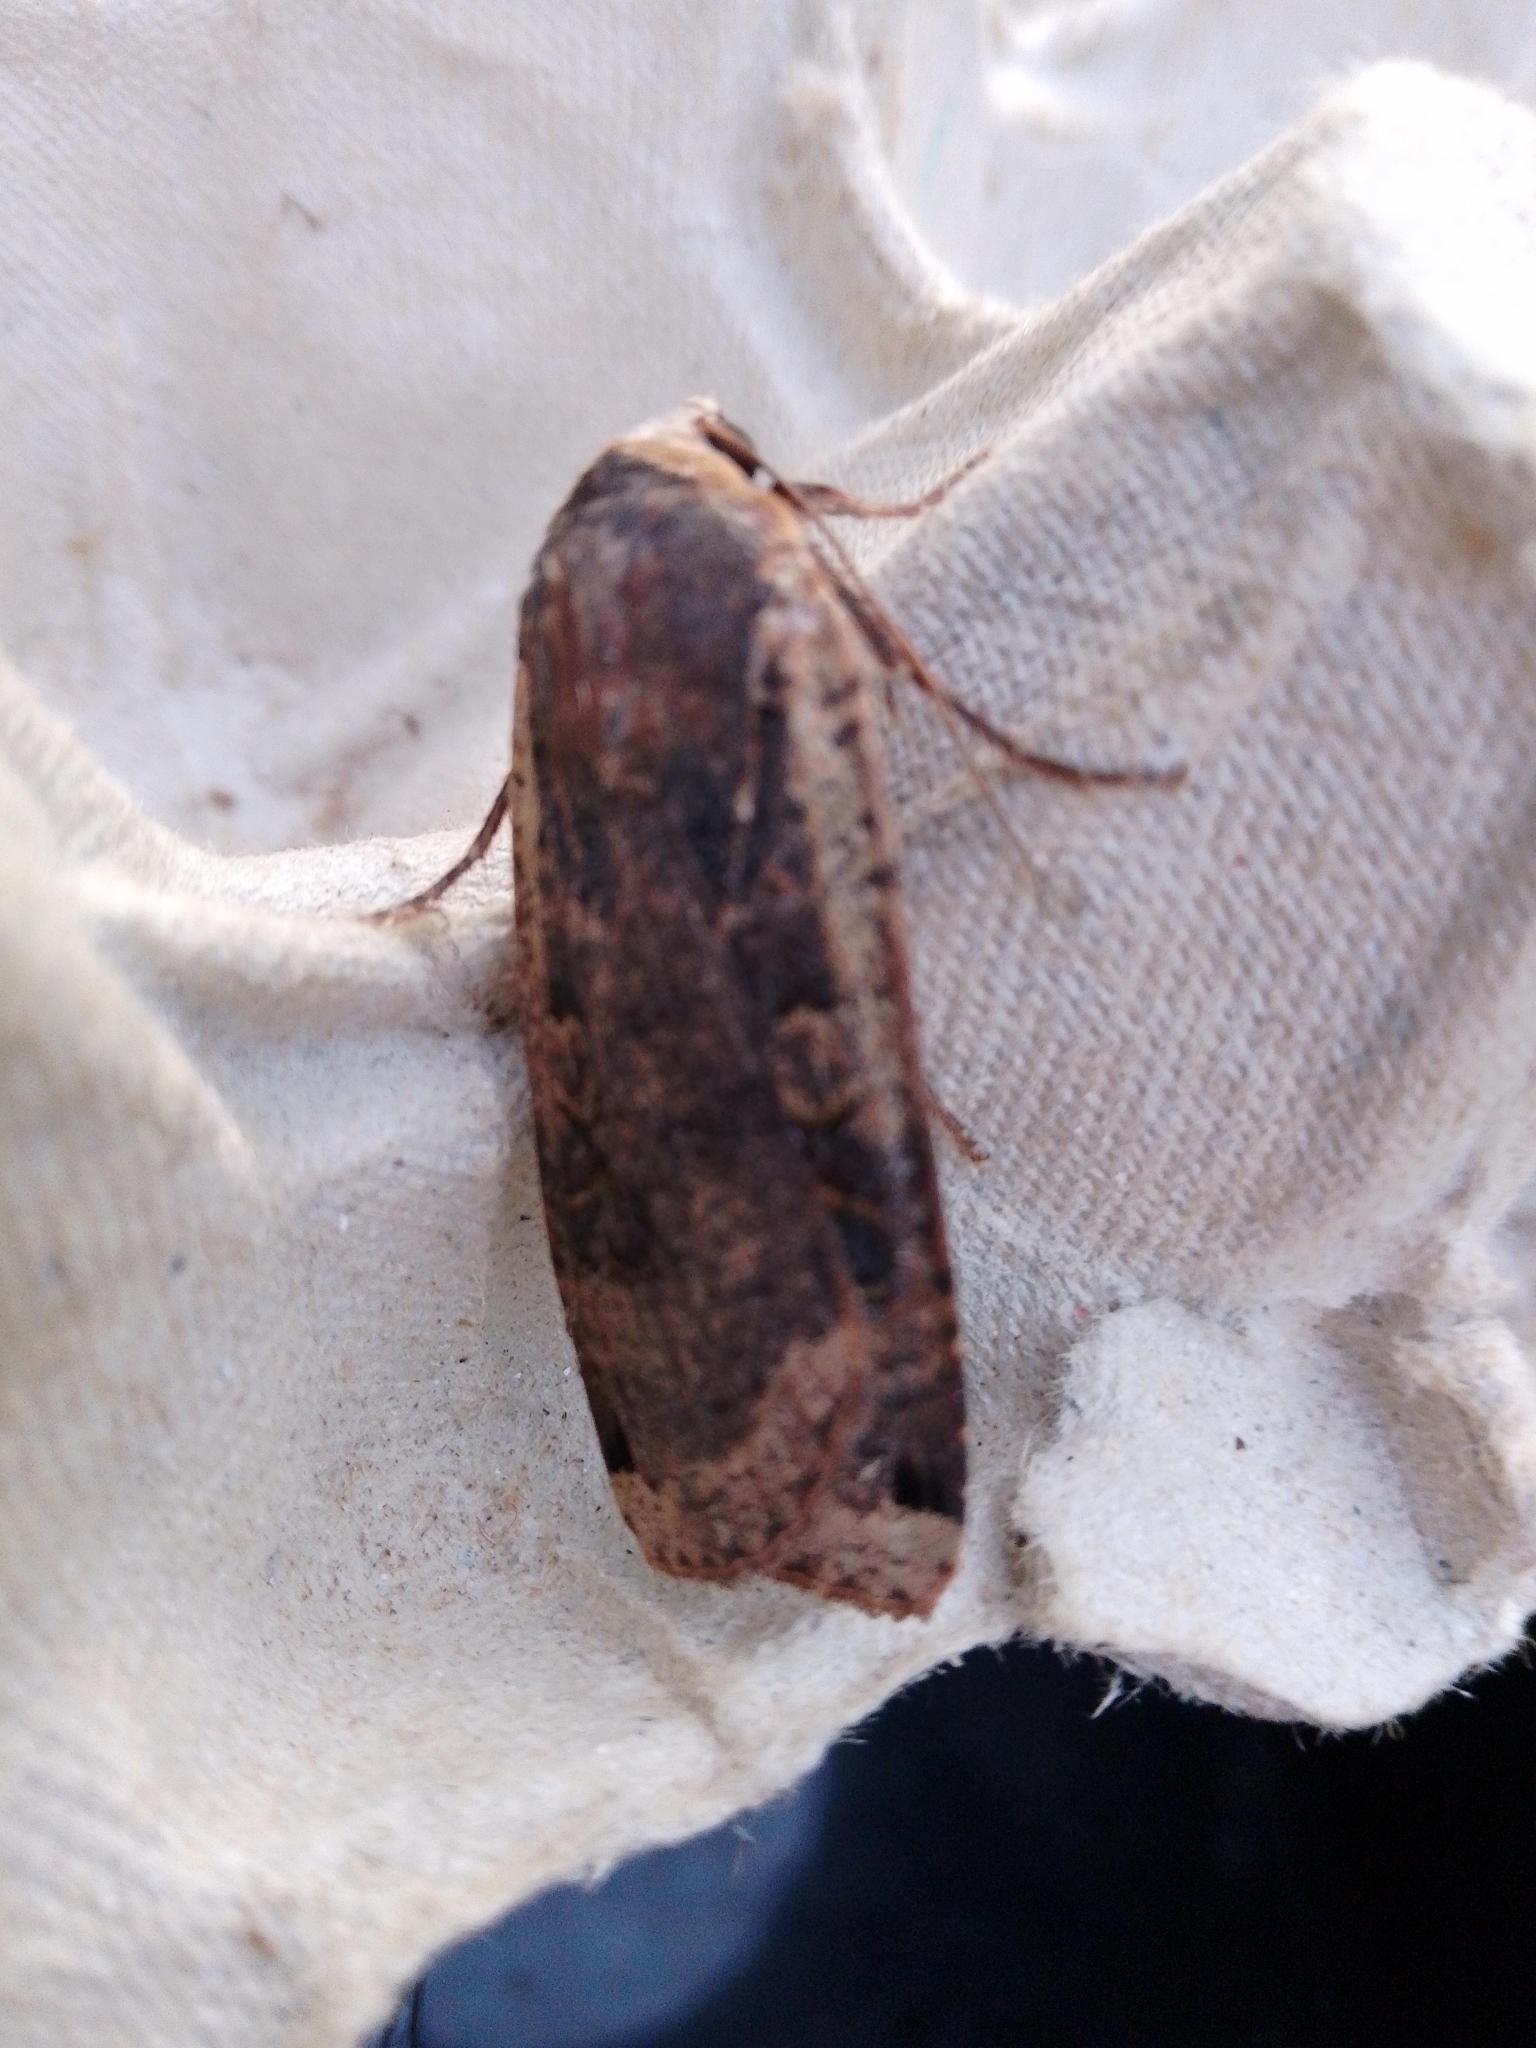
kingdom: Animalia
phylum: Arthropoda
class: Insecta
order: Lepidoptera
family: Noctuidae
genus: Noctua
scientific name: Noctua pronuba
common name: Large yellow underwing
